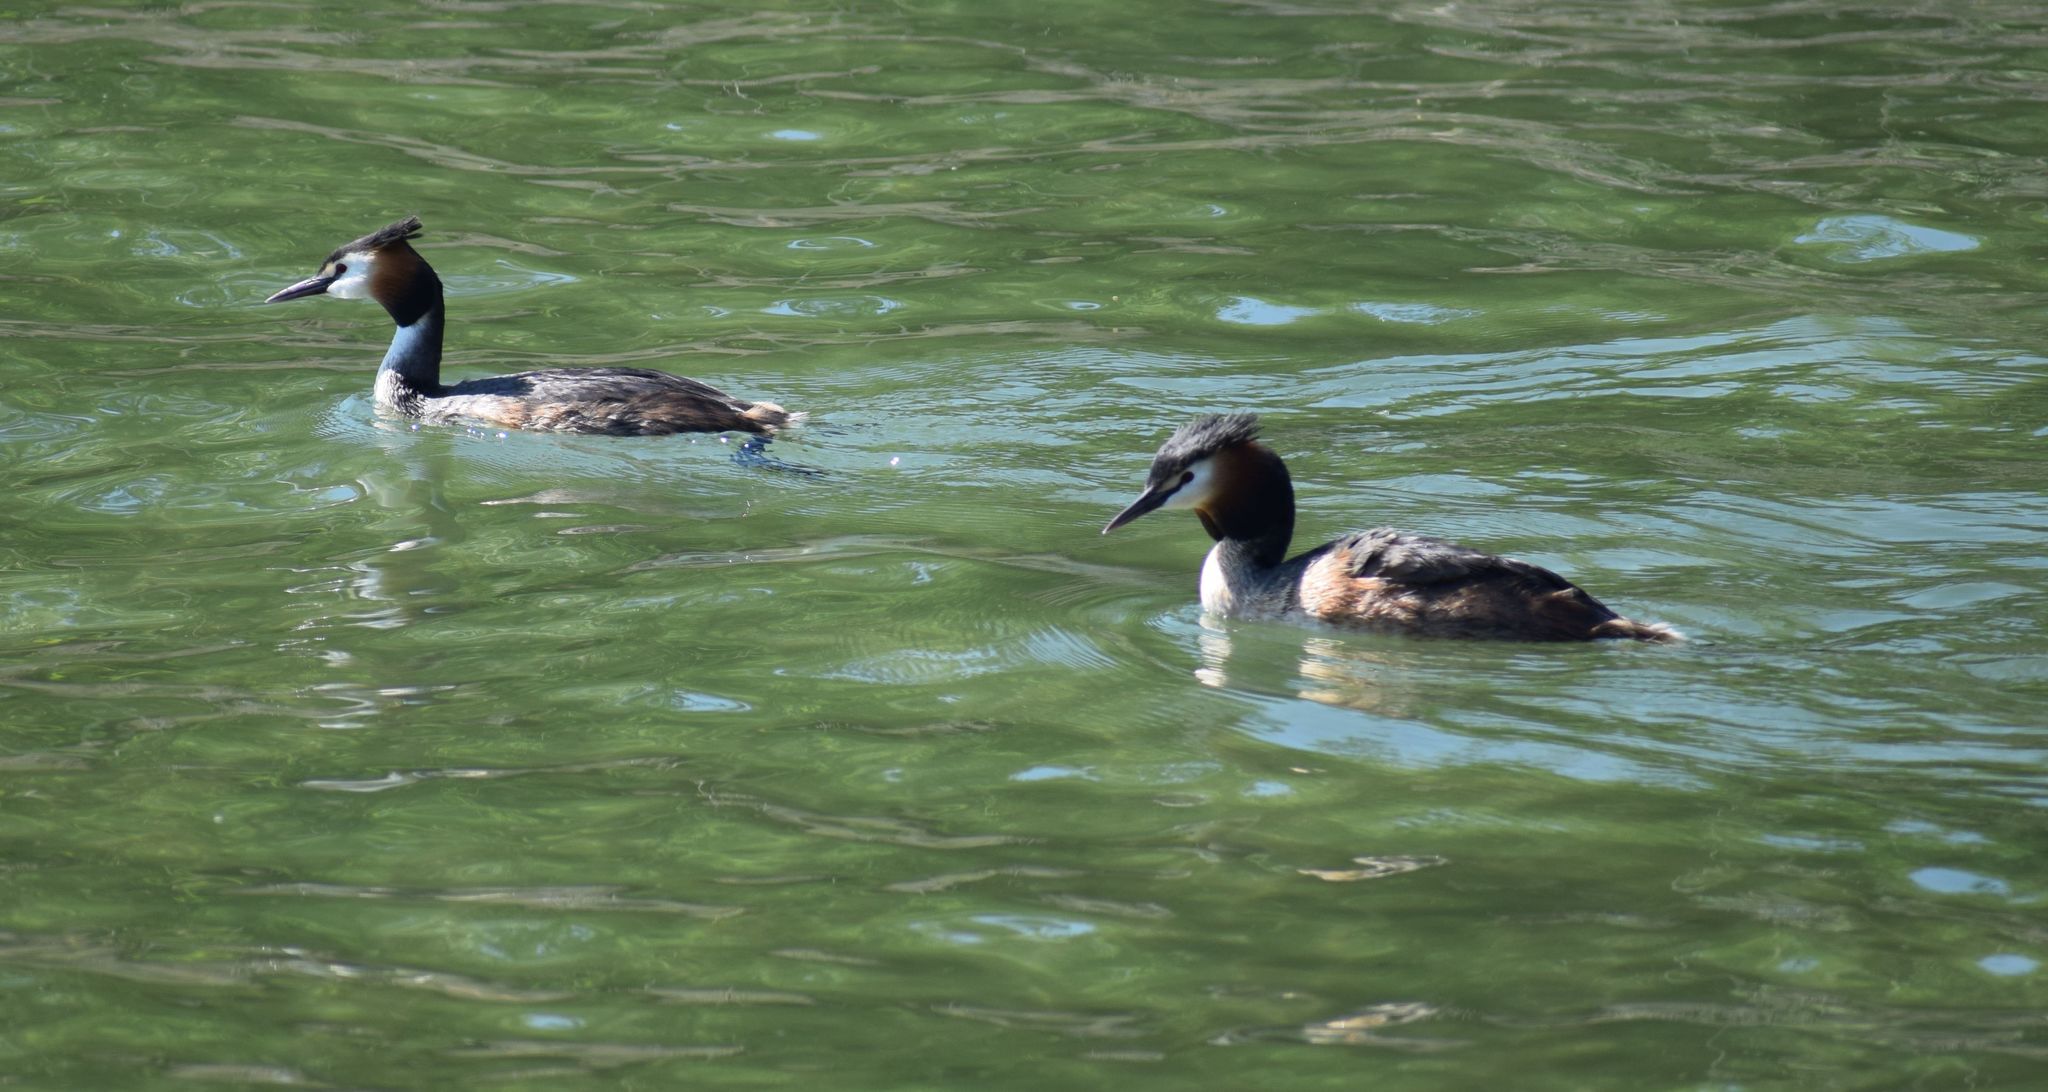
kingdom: Animalia
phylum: Chordata
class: Aves
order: Podicipediformes
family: Podicipedidae
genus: Podiceps
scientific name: Podiceps cristatus
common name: Great crested grebe
